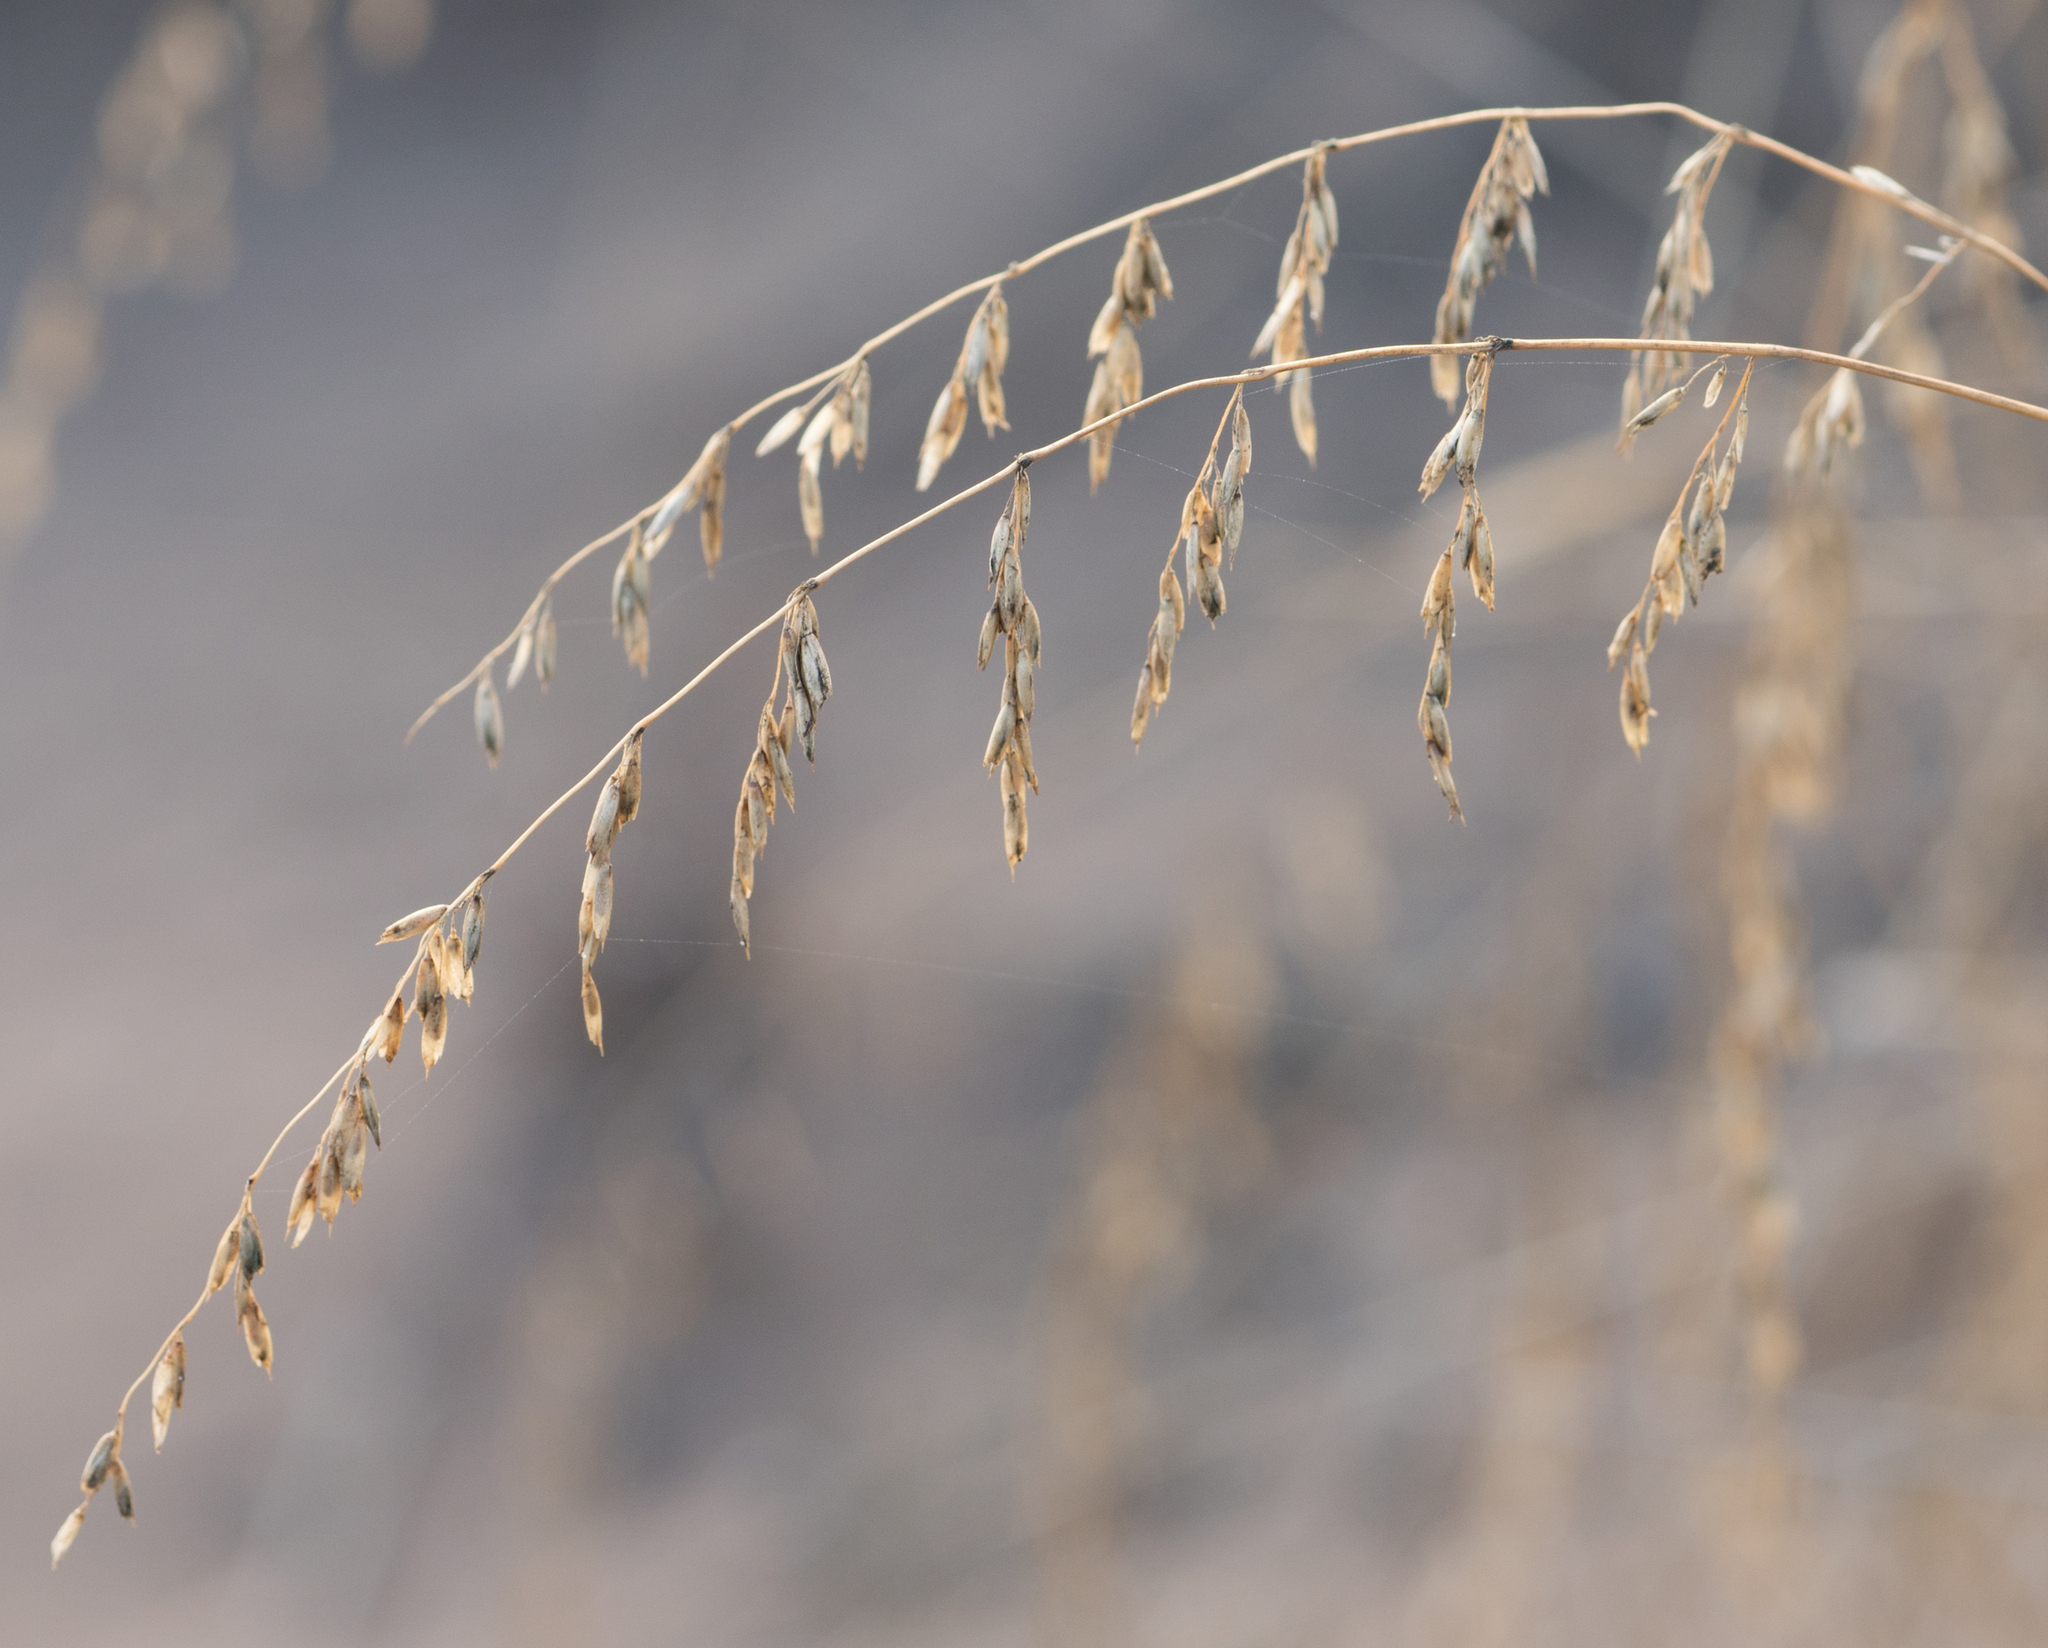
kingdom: Plantae
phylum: Tracheophyta
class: Liliopsida
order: Poales
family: Poaceae
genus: Ehrharta
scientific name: Ehrharta calycina
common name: Perennial veldtgrass
